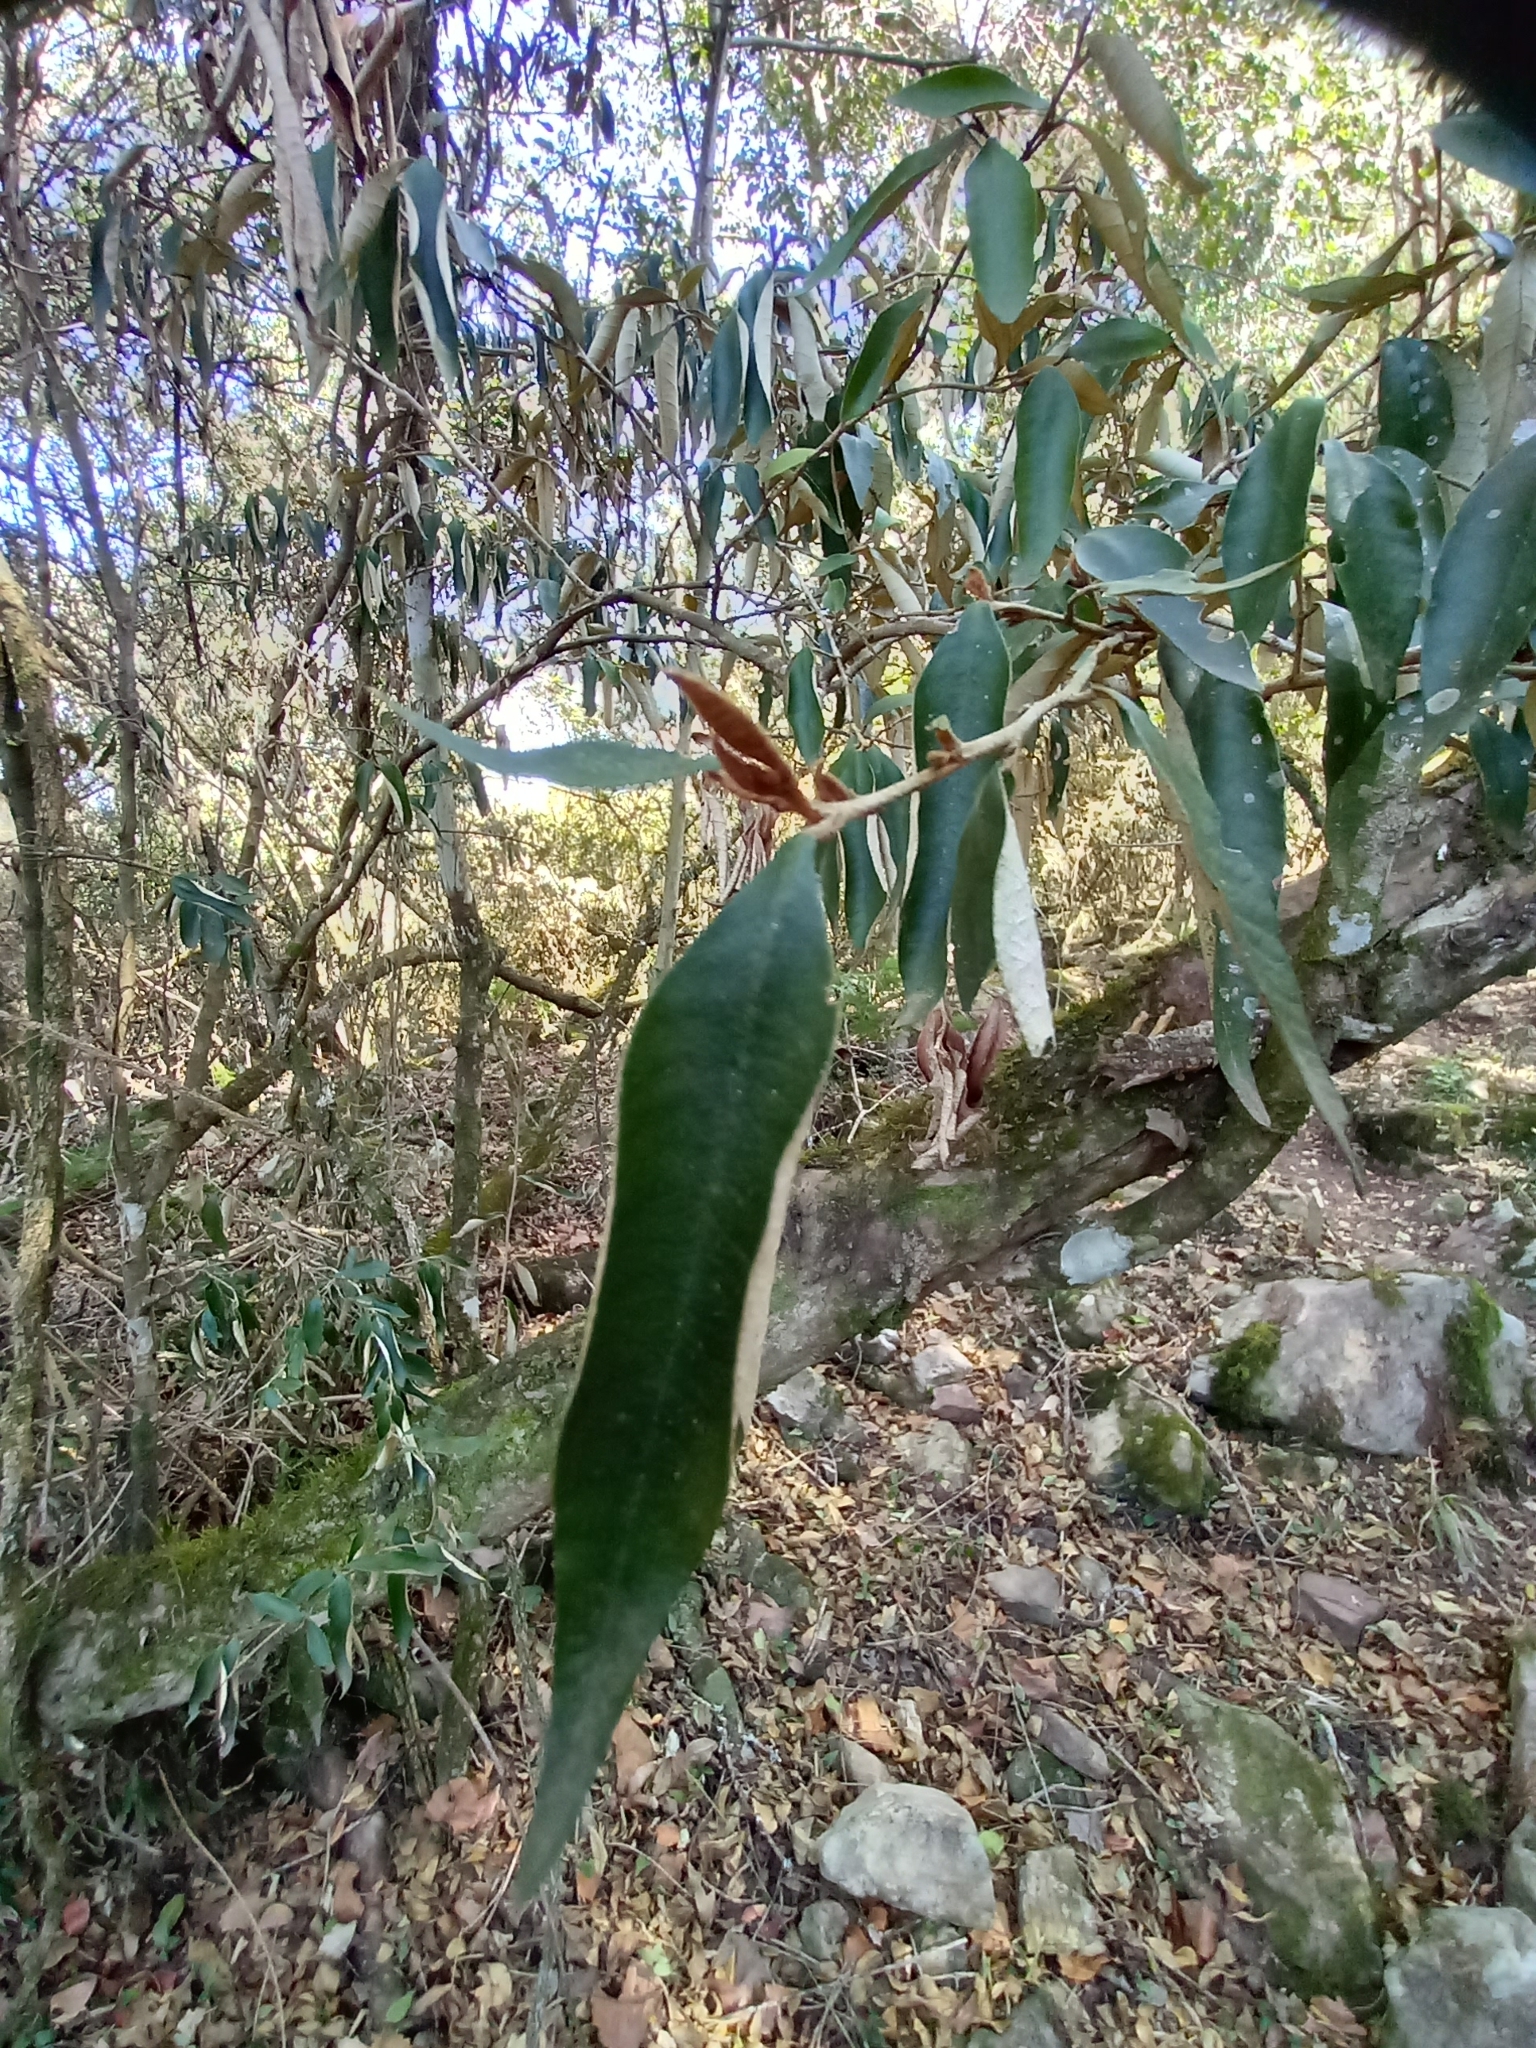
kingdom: Plantae
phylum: Tracheophyta
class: Magnoliopsida
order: Saxifragales
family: Hamamelidaceae
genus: Trichocladus
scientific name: Trichocladus ellipticus
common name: White witch-hazel
